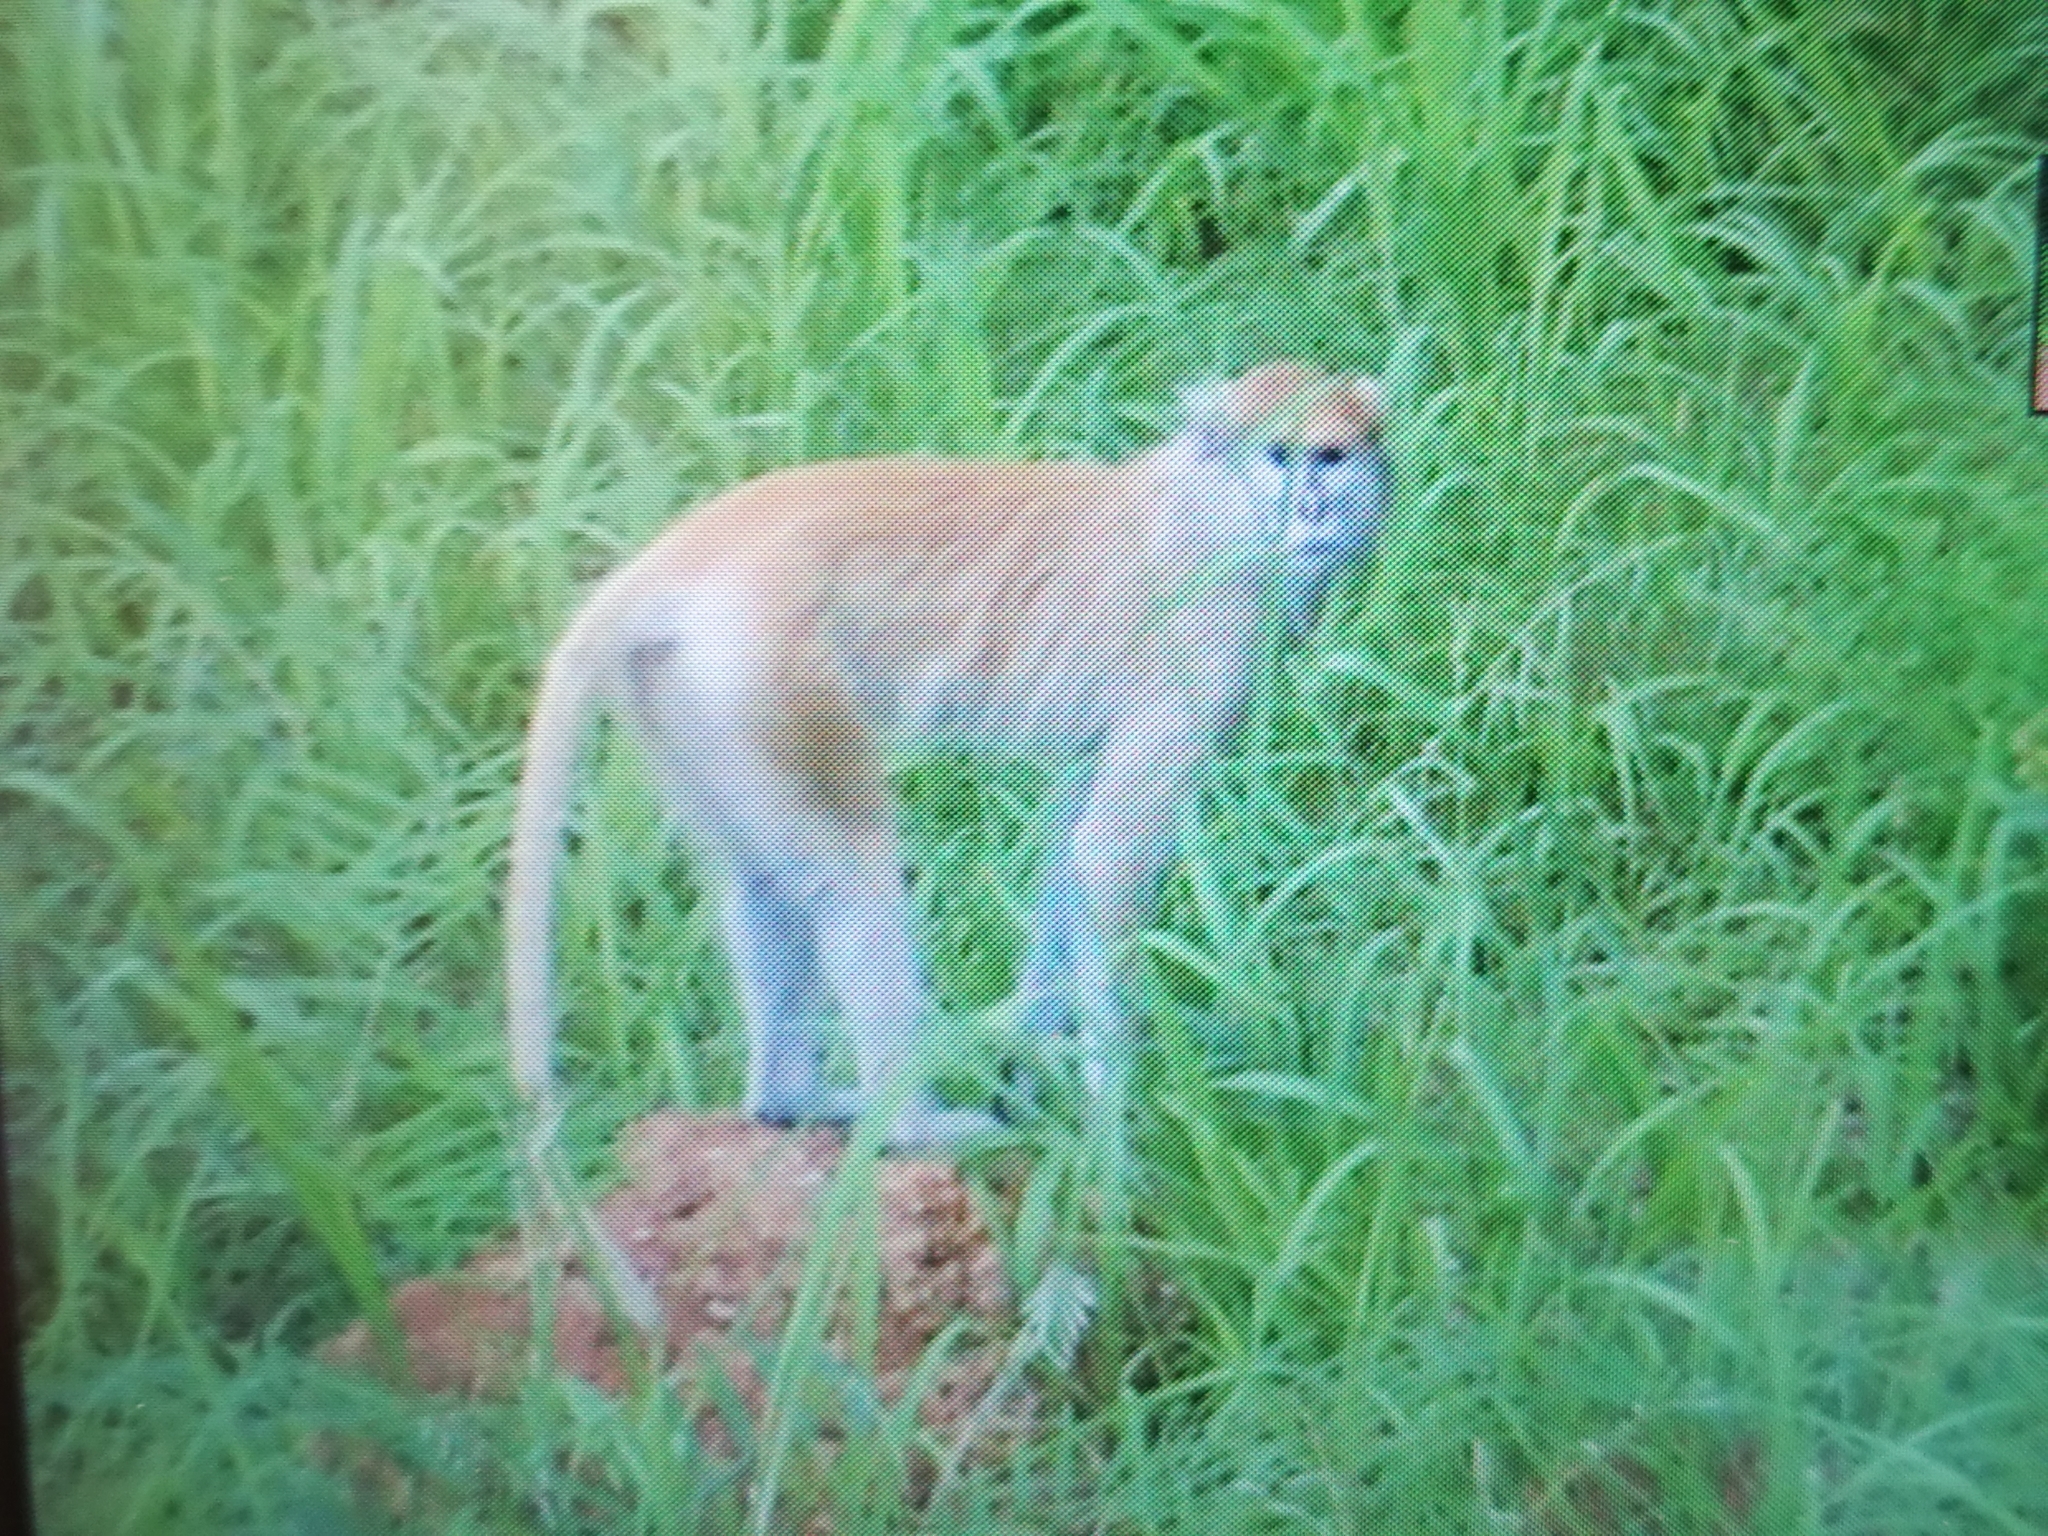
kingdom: Animalia
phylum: Chordata
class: Mammalia
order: Primates
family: Cercopithecidae
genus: Erythrocebus
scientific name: Erythrocebus patas
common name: Patas monkey
